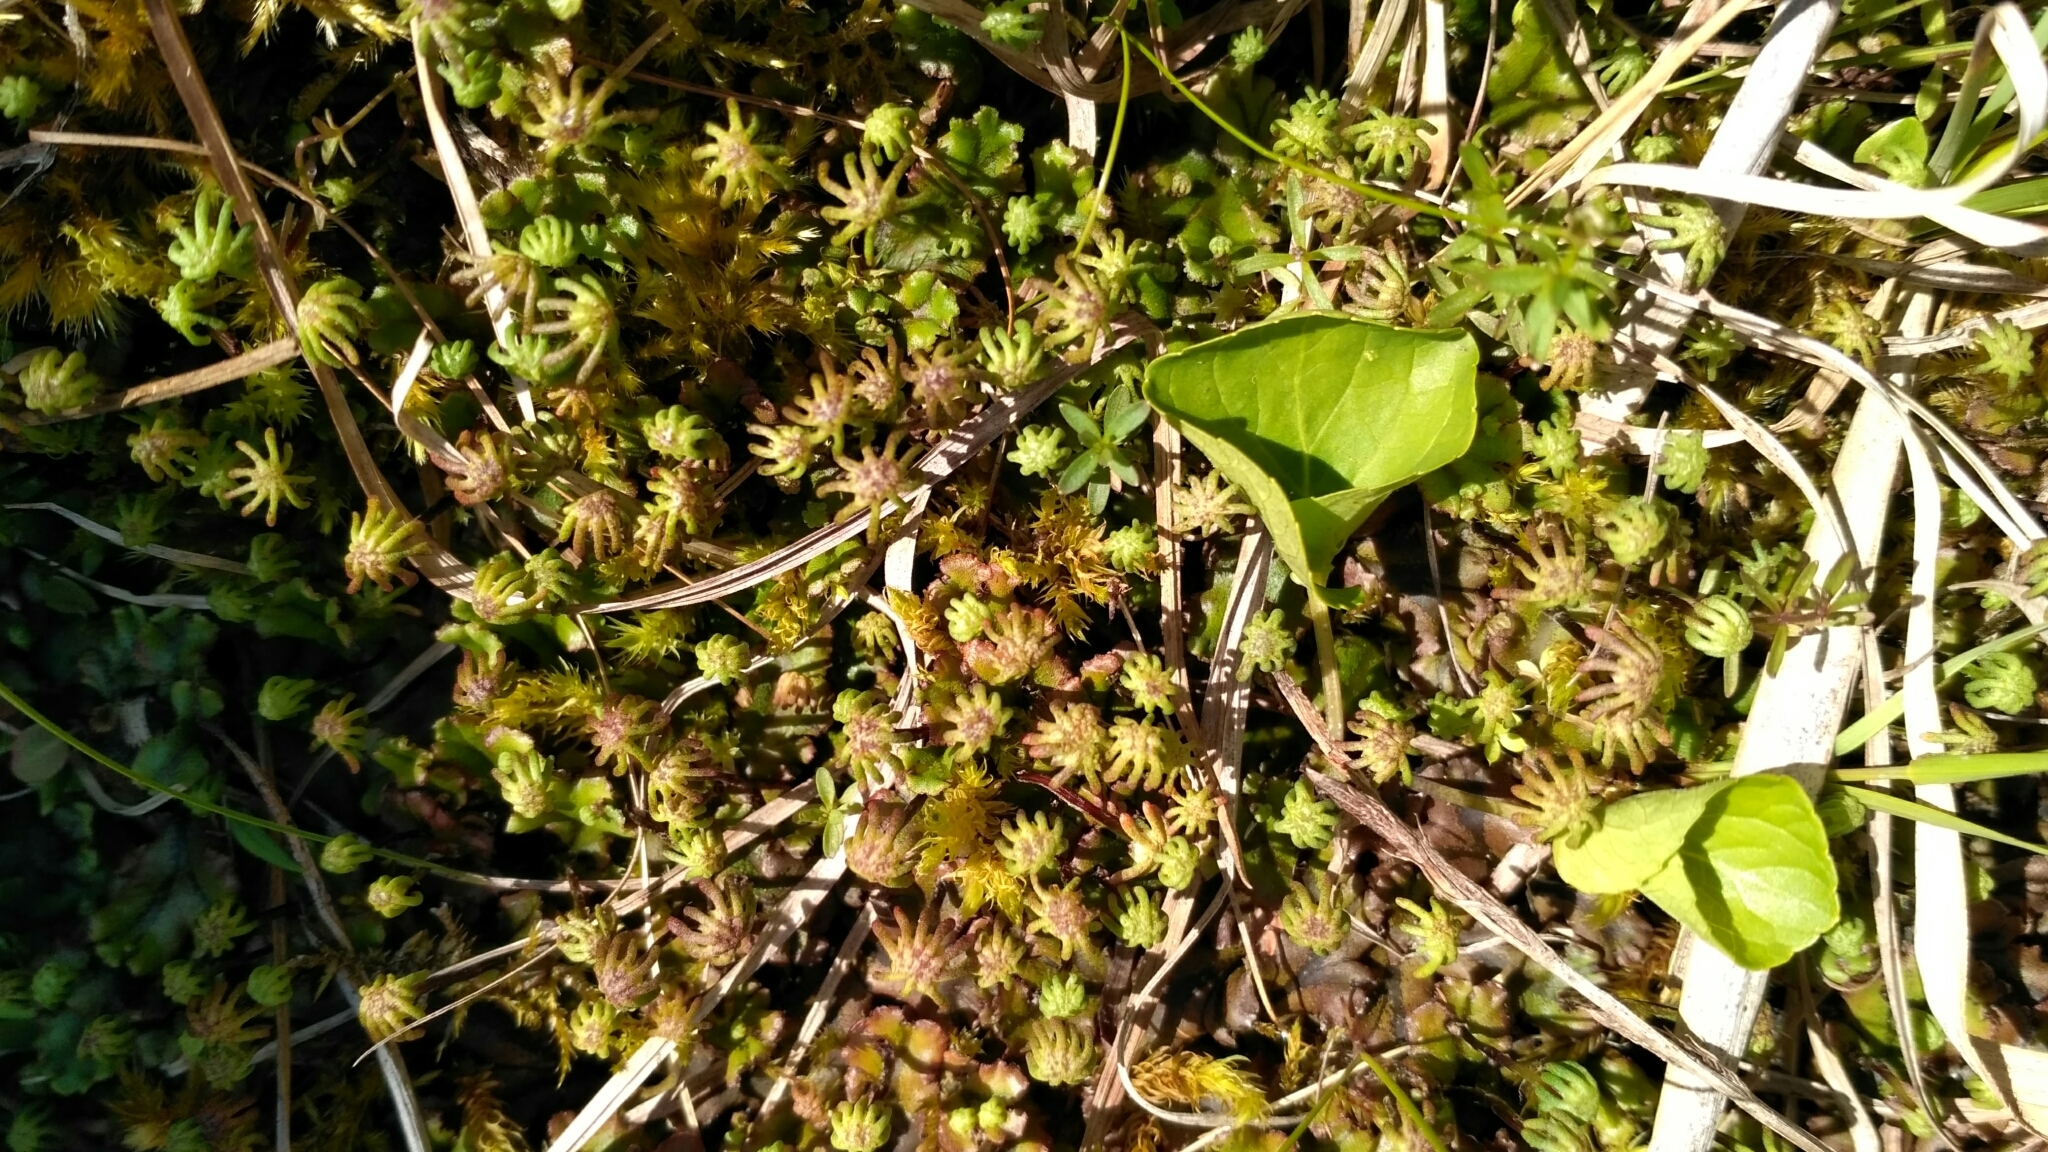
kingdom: Plantae
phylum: Marchantiophyta
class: Marchantiopsida
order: Marchantiales
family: Marchantiaceae
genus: Marchantia
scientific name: Marchantia polymorpha
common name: Common liverwort
